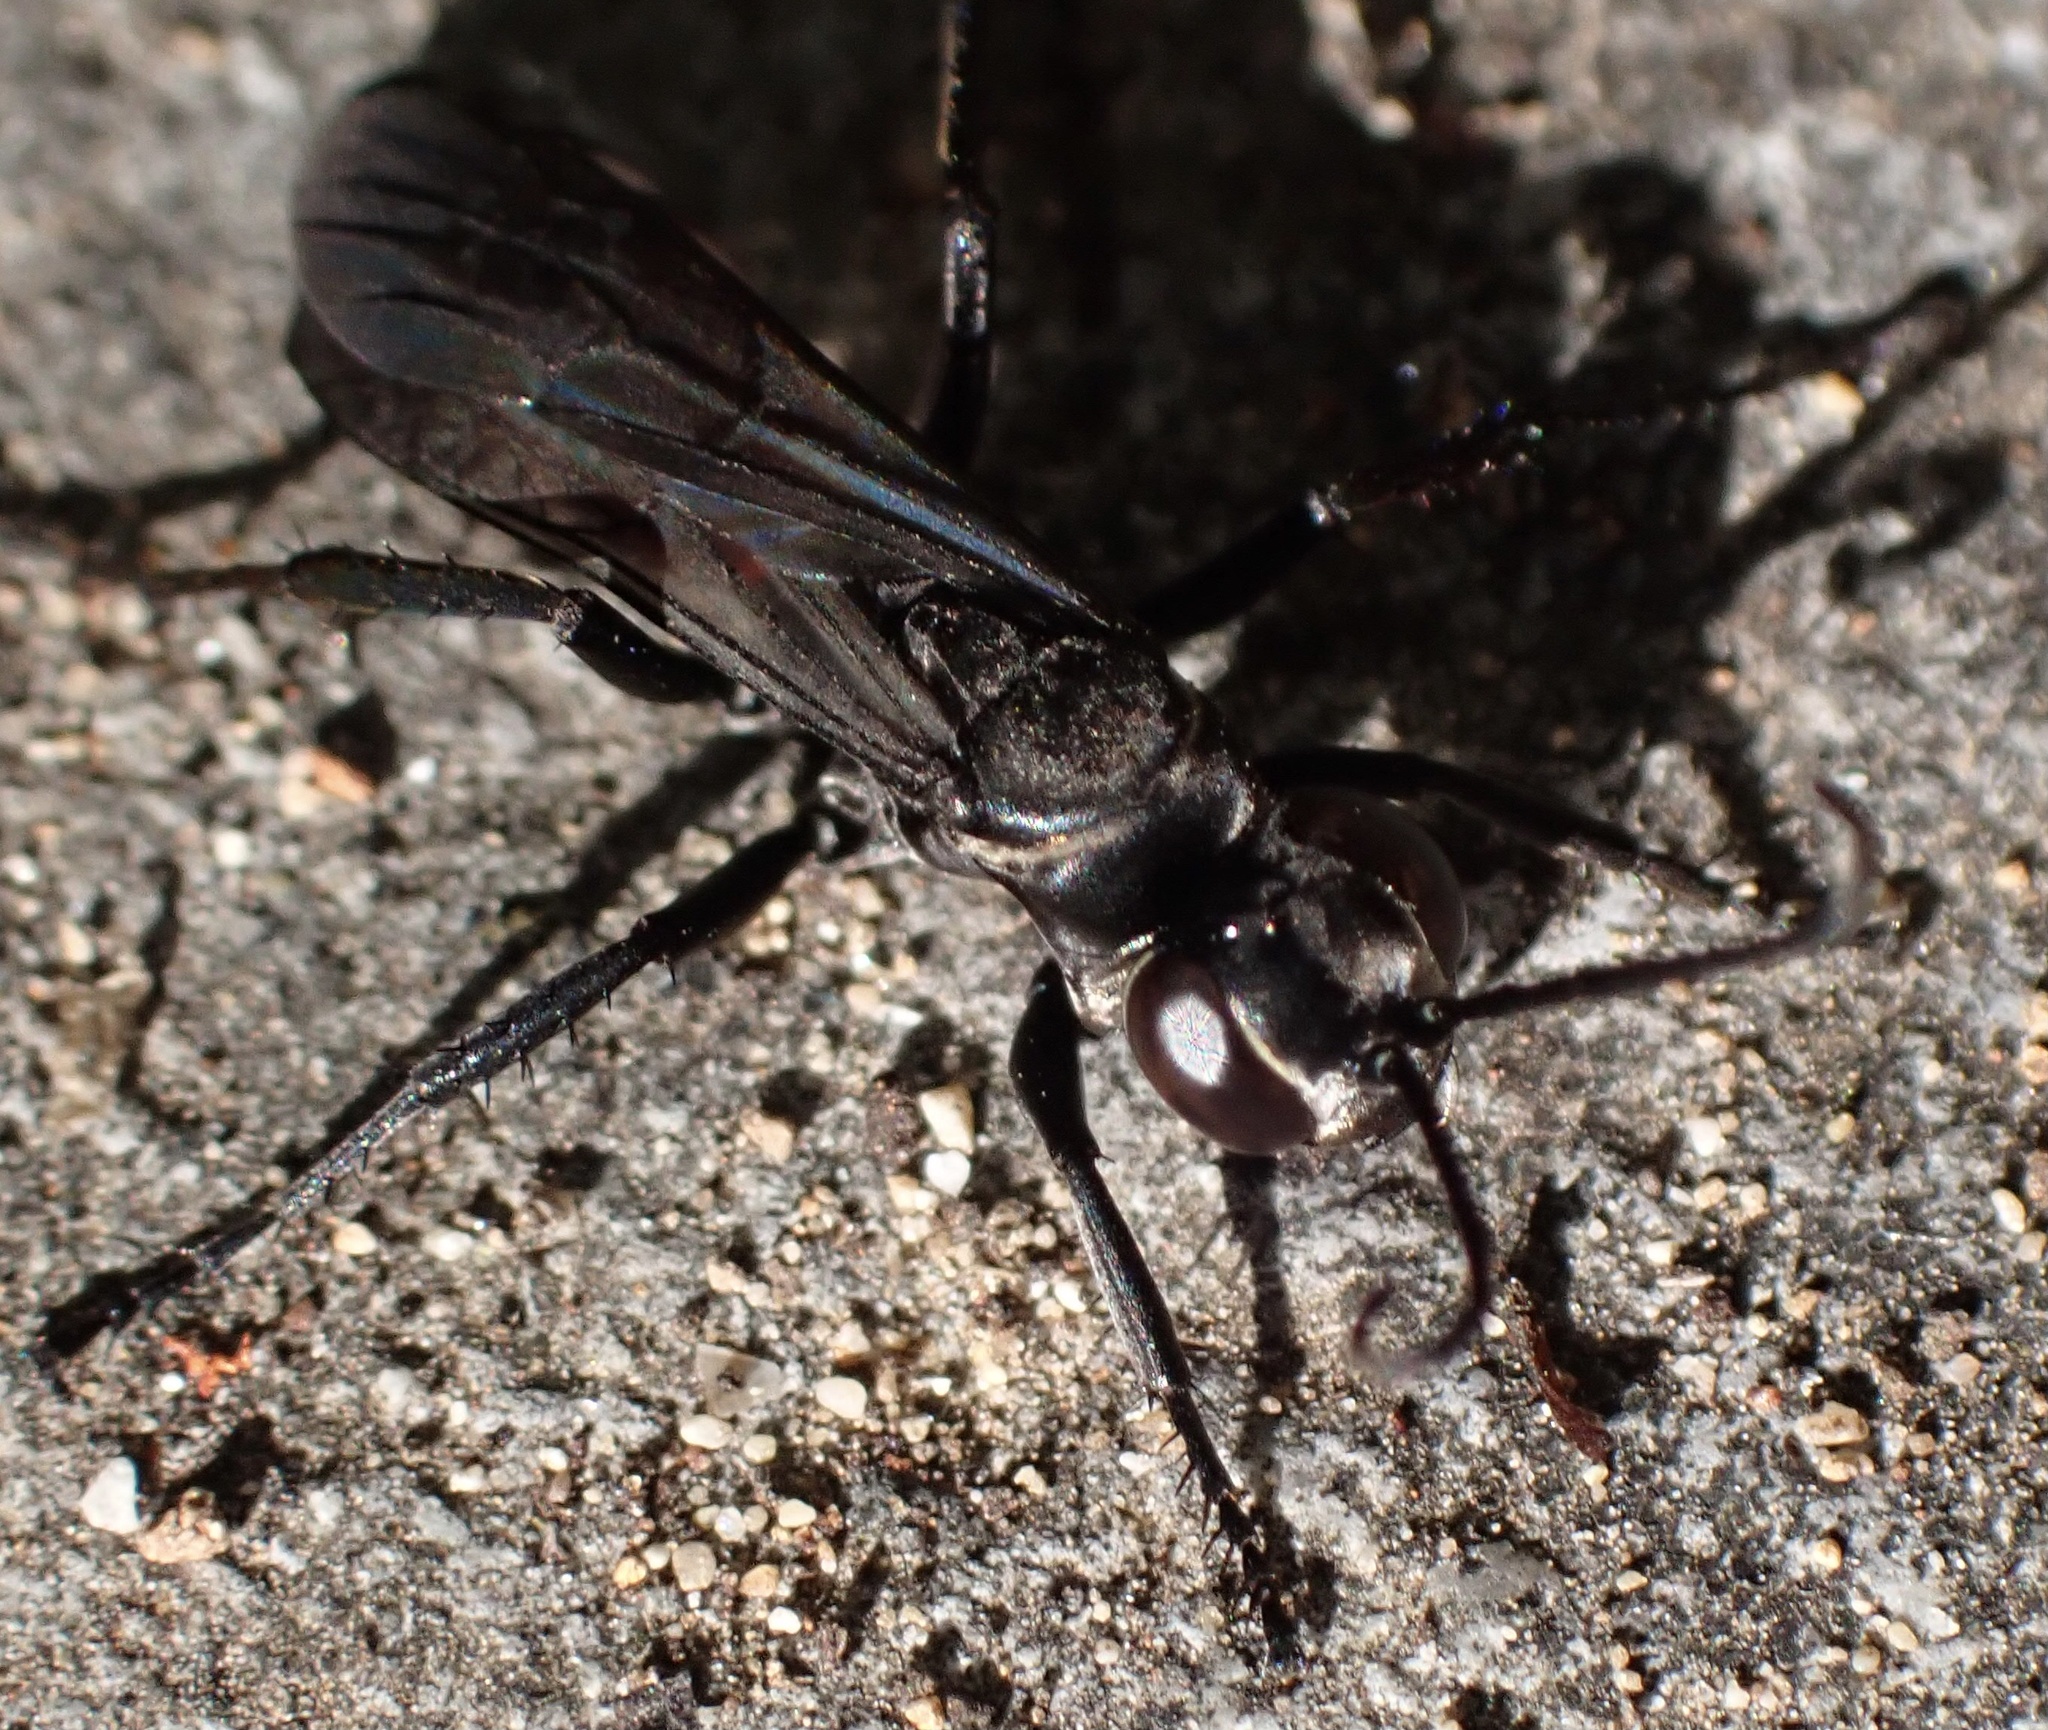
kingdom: Animalia
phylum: Arthropoda
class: Insecta
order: Hymenoptera
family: Pompilidae
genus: Anospilus
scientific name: Anospilus orbitalis
